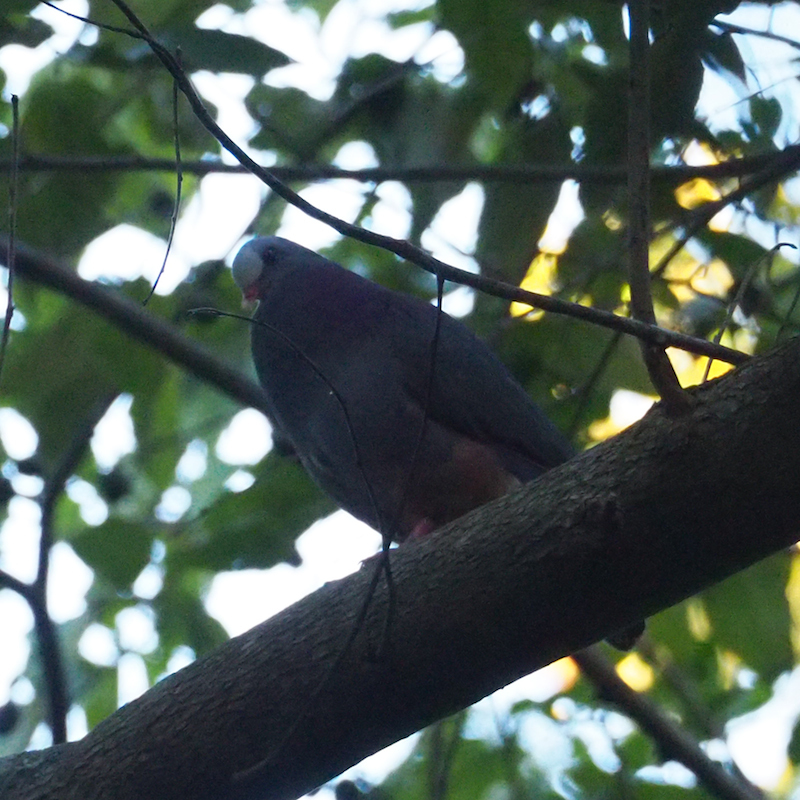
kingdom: Animalia
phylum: Chordata
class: Aves
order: Columbiformes
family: Columbidae
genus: Geotrygon
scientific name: Geotrygon caniceps
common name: Gray-fronted quail-dove
